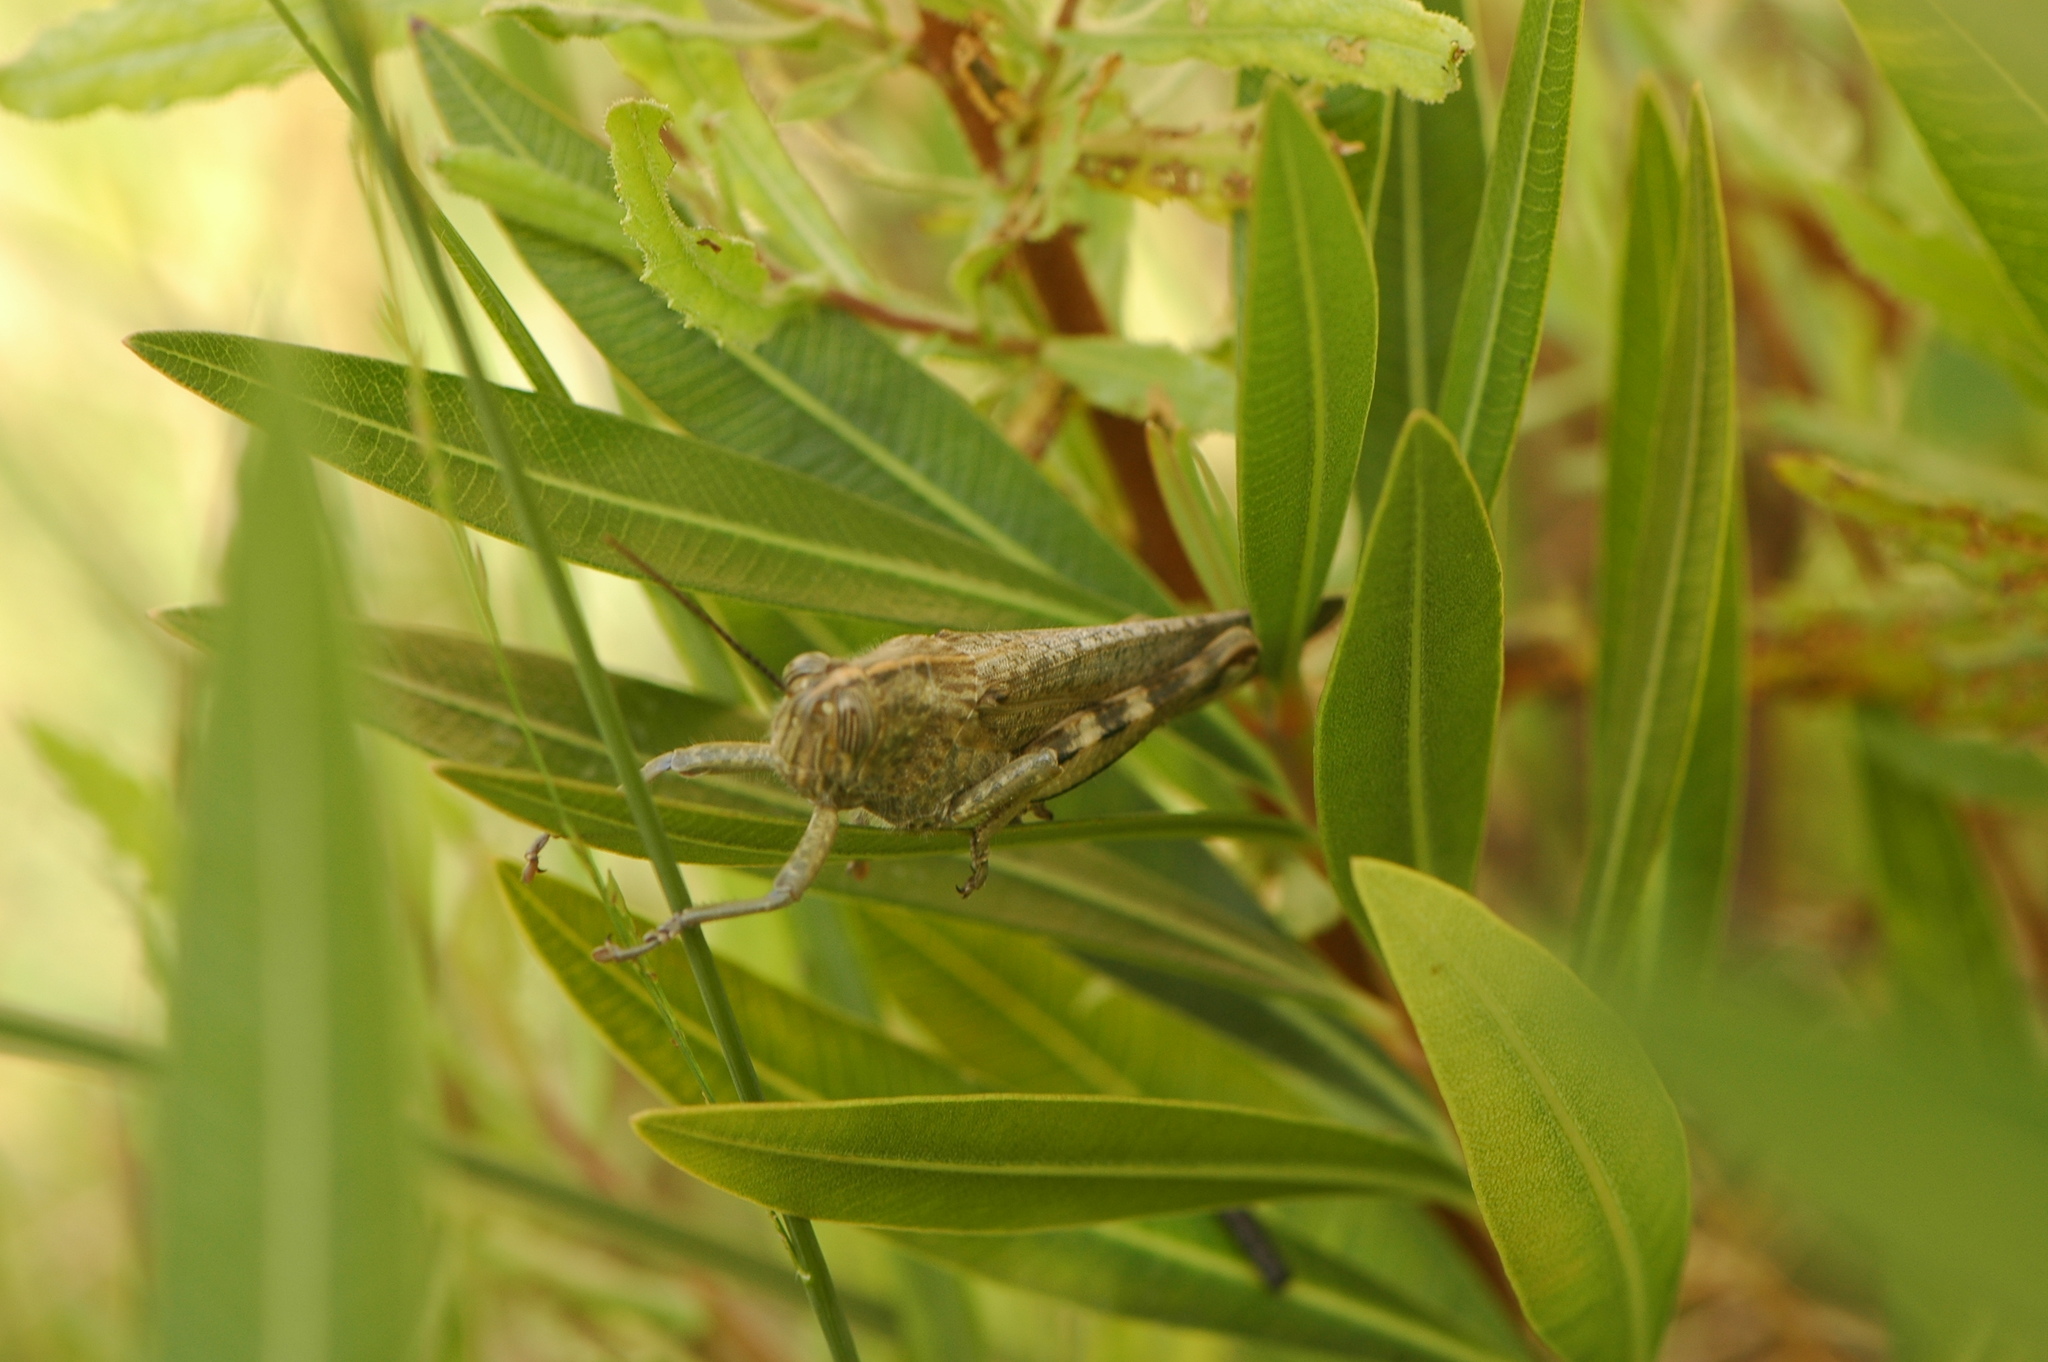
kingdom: Animalia
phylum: Arthropoda
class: Insecta
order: Orthoptera
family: Acrididae
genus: Anacridium
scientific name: Anacridium aegyptium
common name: Egyptian grasshopper
